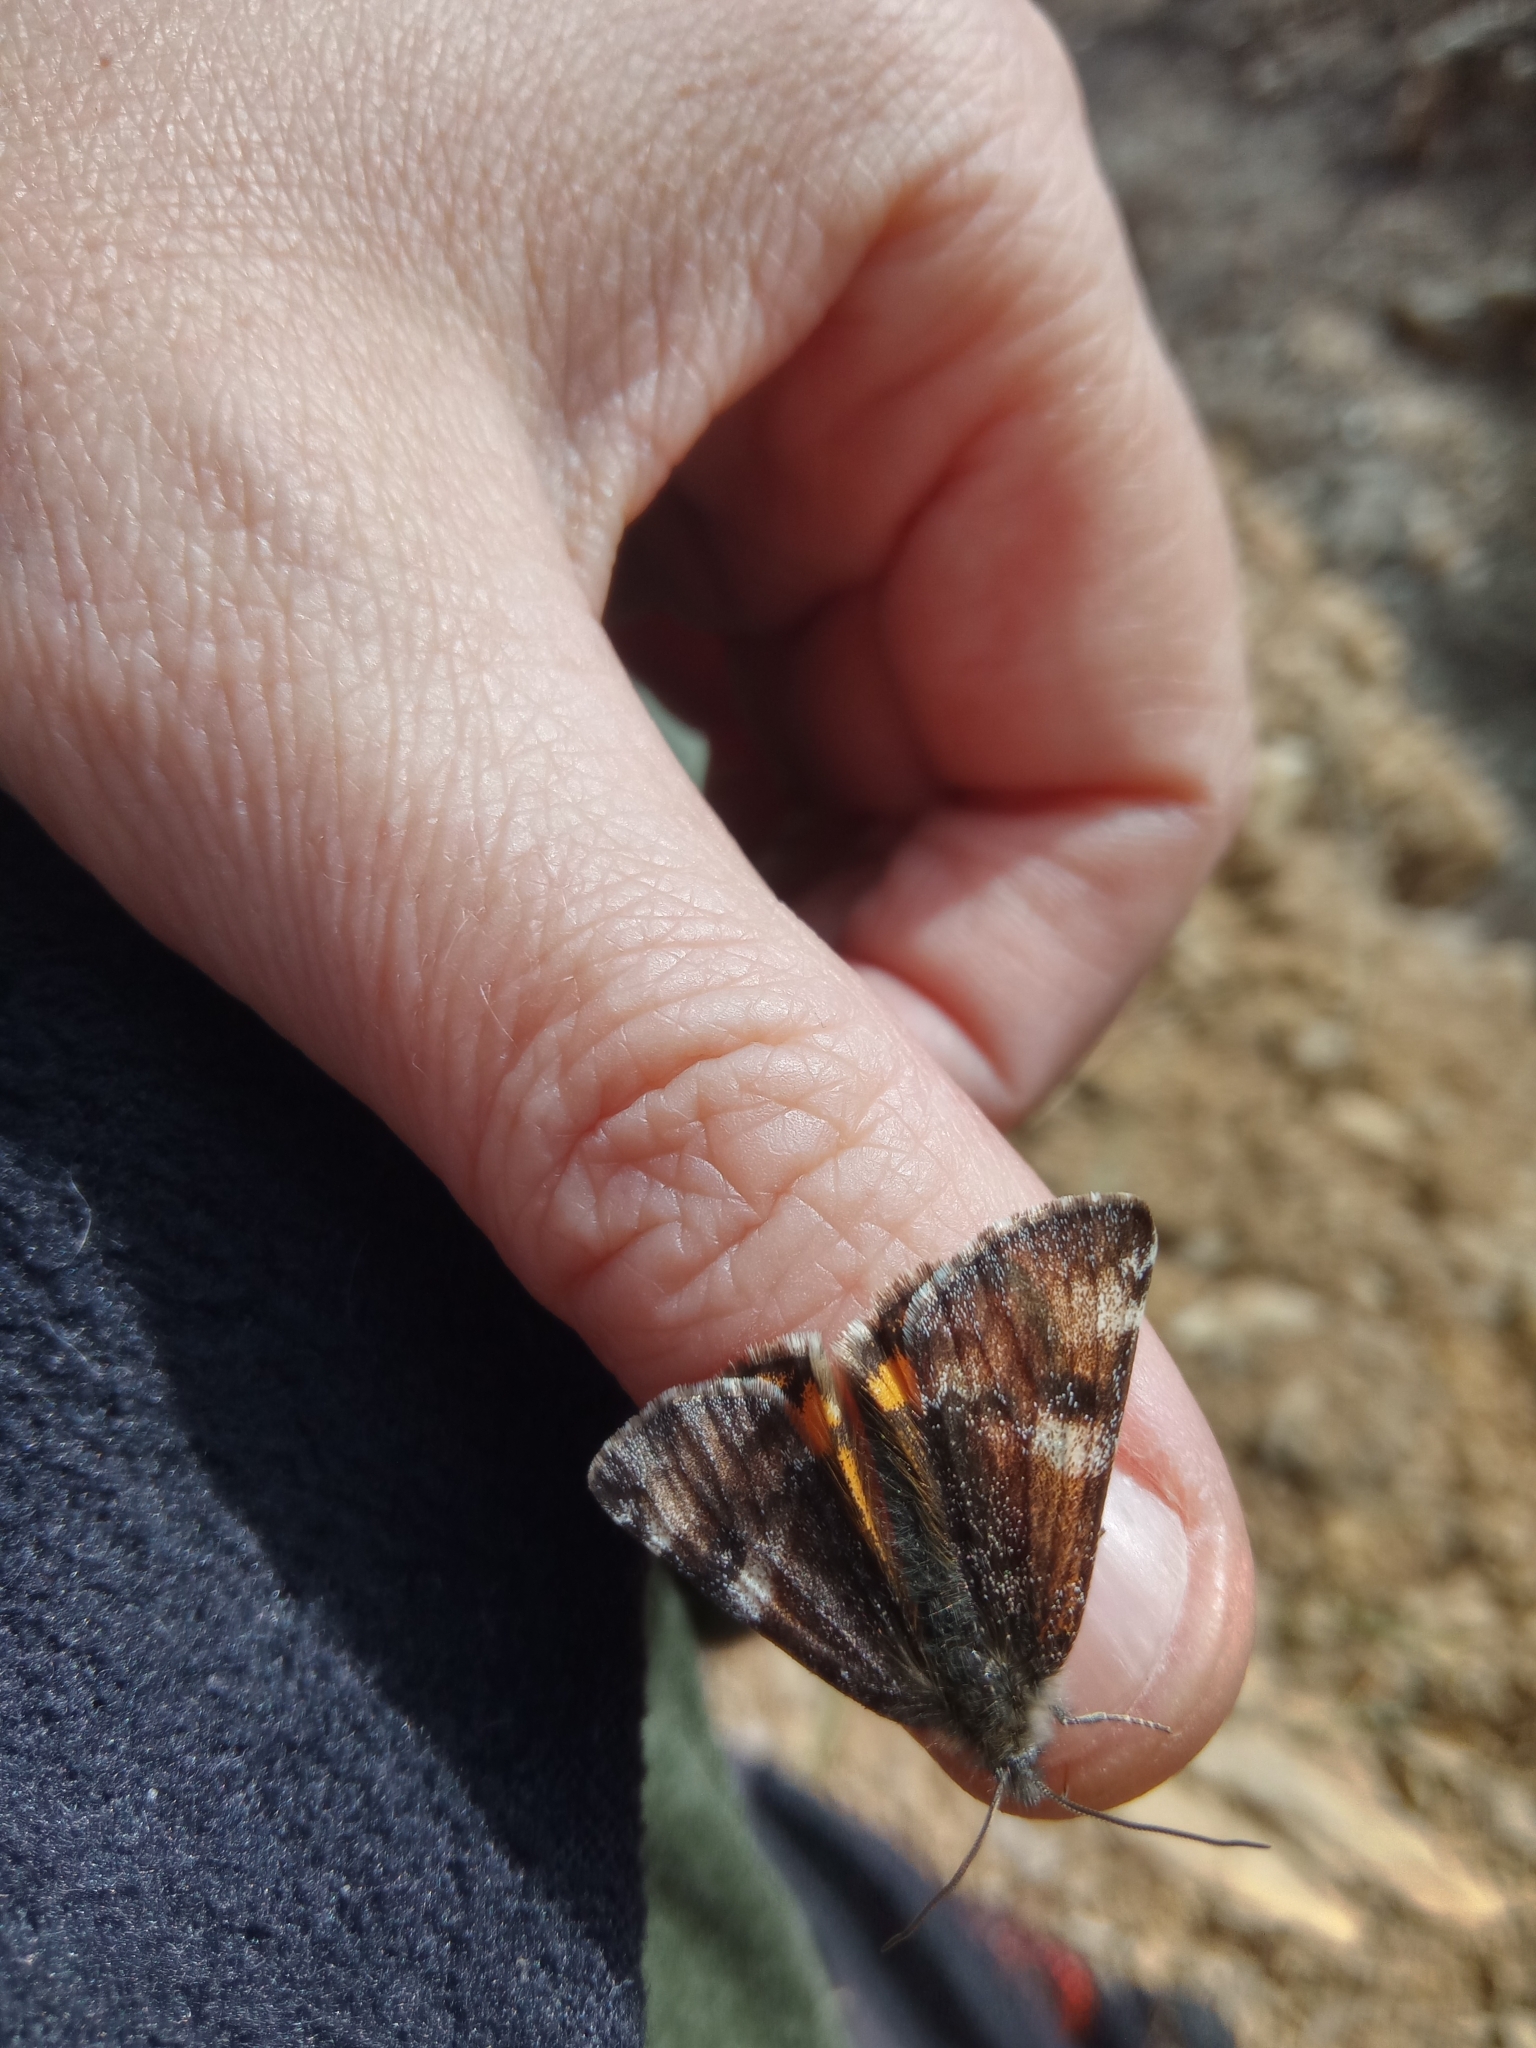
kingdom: Animalia
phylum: Arthropoda
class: Insecta
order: Lepidoptera
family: Geometridae
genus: Archiearis
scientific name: Archiearis parthenias
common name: Orange underwing
